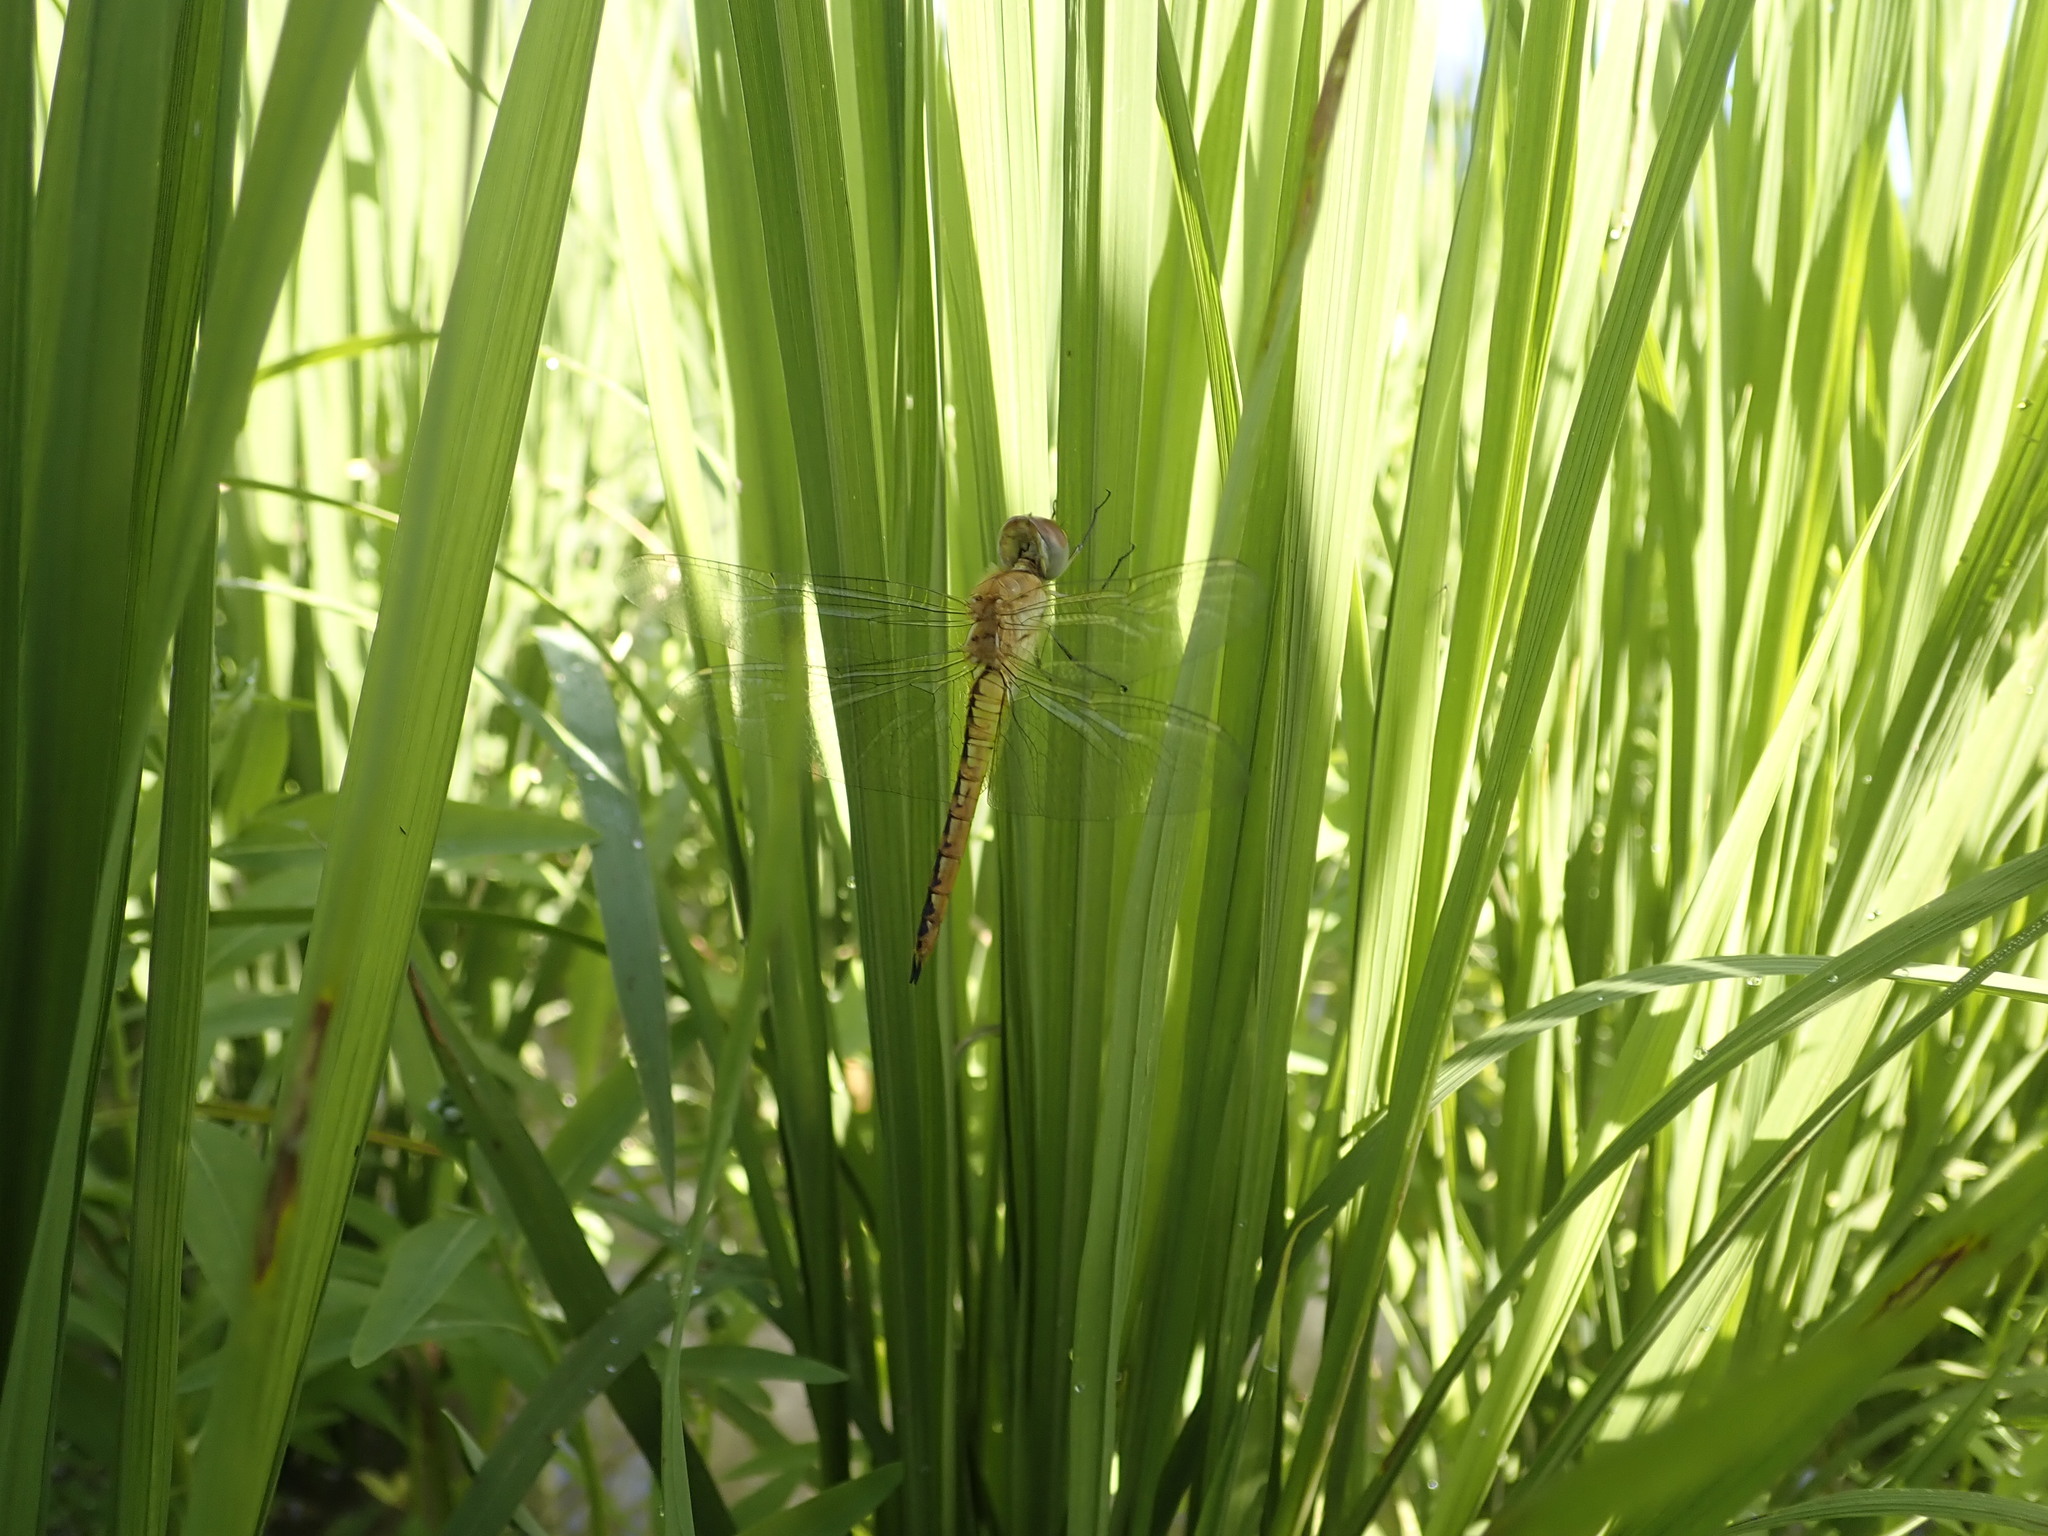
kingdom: Animalia
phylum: Arthropoda
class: Insecta
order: Odonata
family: Libellulidae
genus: Pantala
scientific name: Pantala flavescens
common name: Wandering glider
